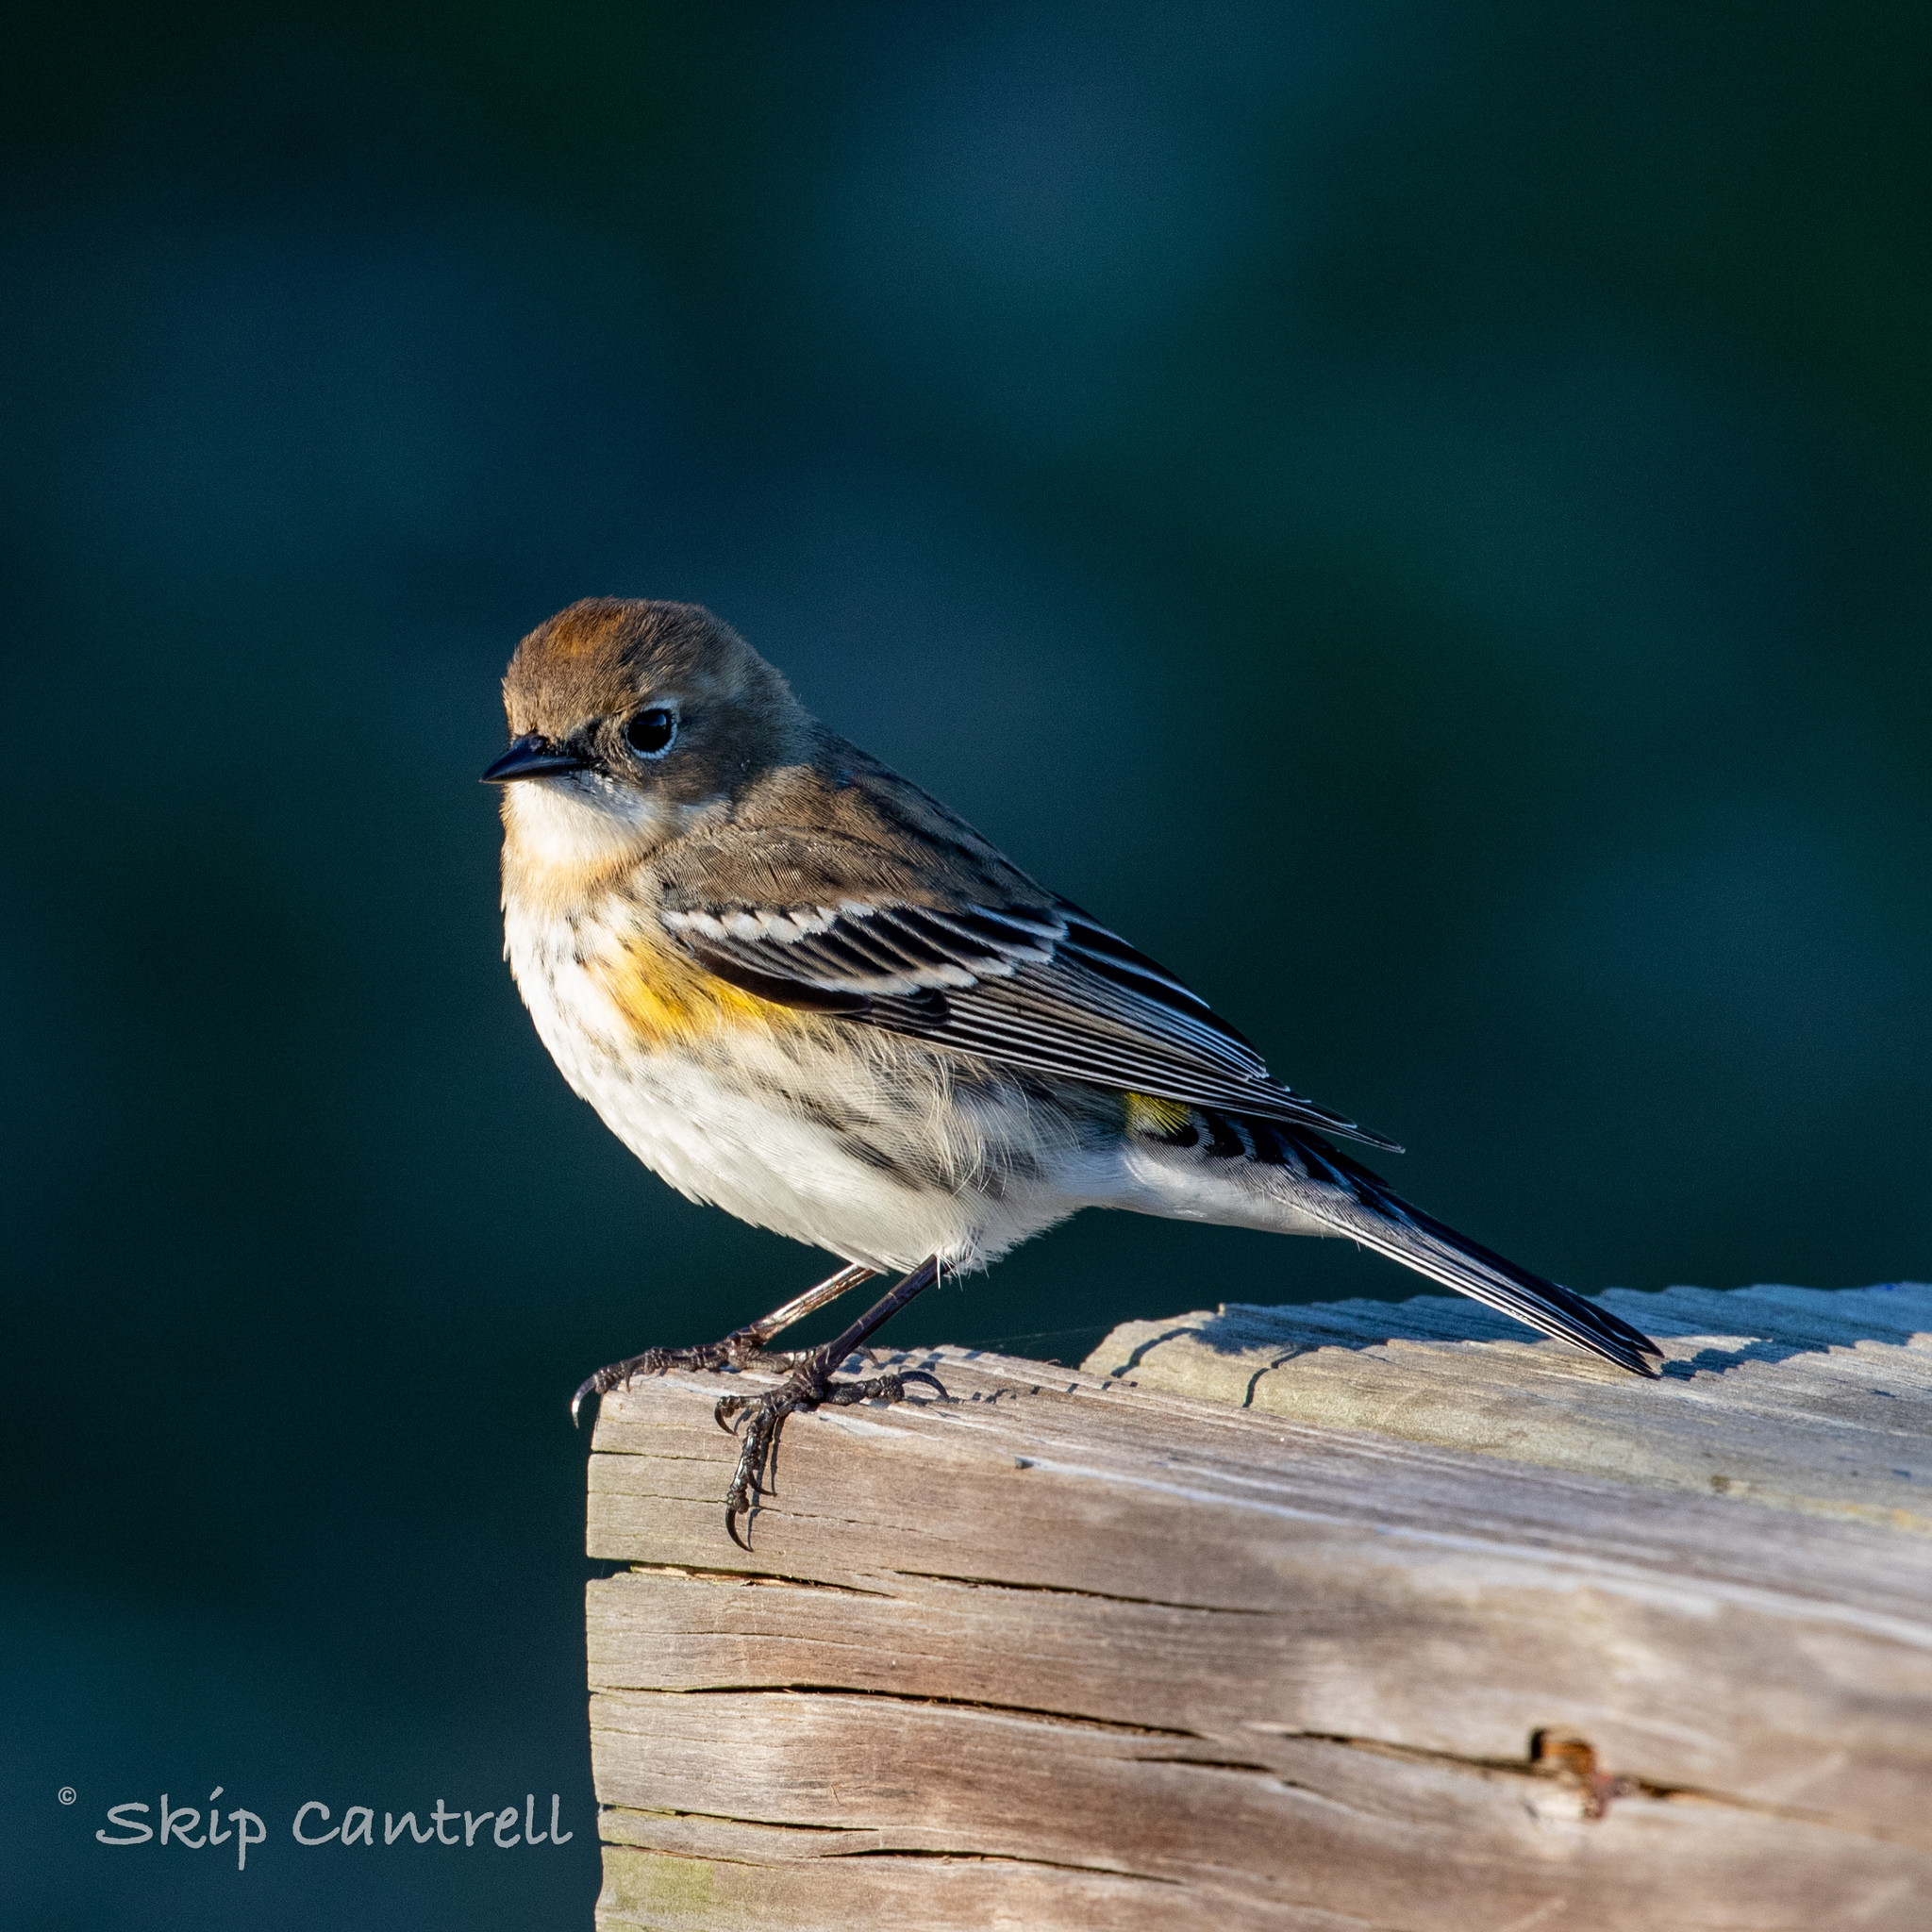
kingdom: Animalia
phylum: Chordata
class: Aves
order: Passeriformes
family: Parulidae
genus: Setophaga
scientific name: Setophaga coronata
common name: Myrtle warbler
